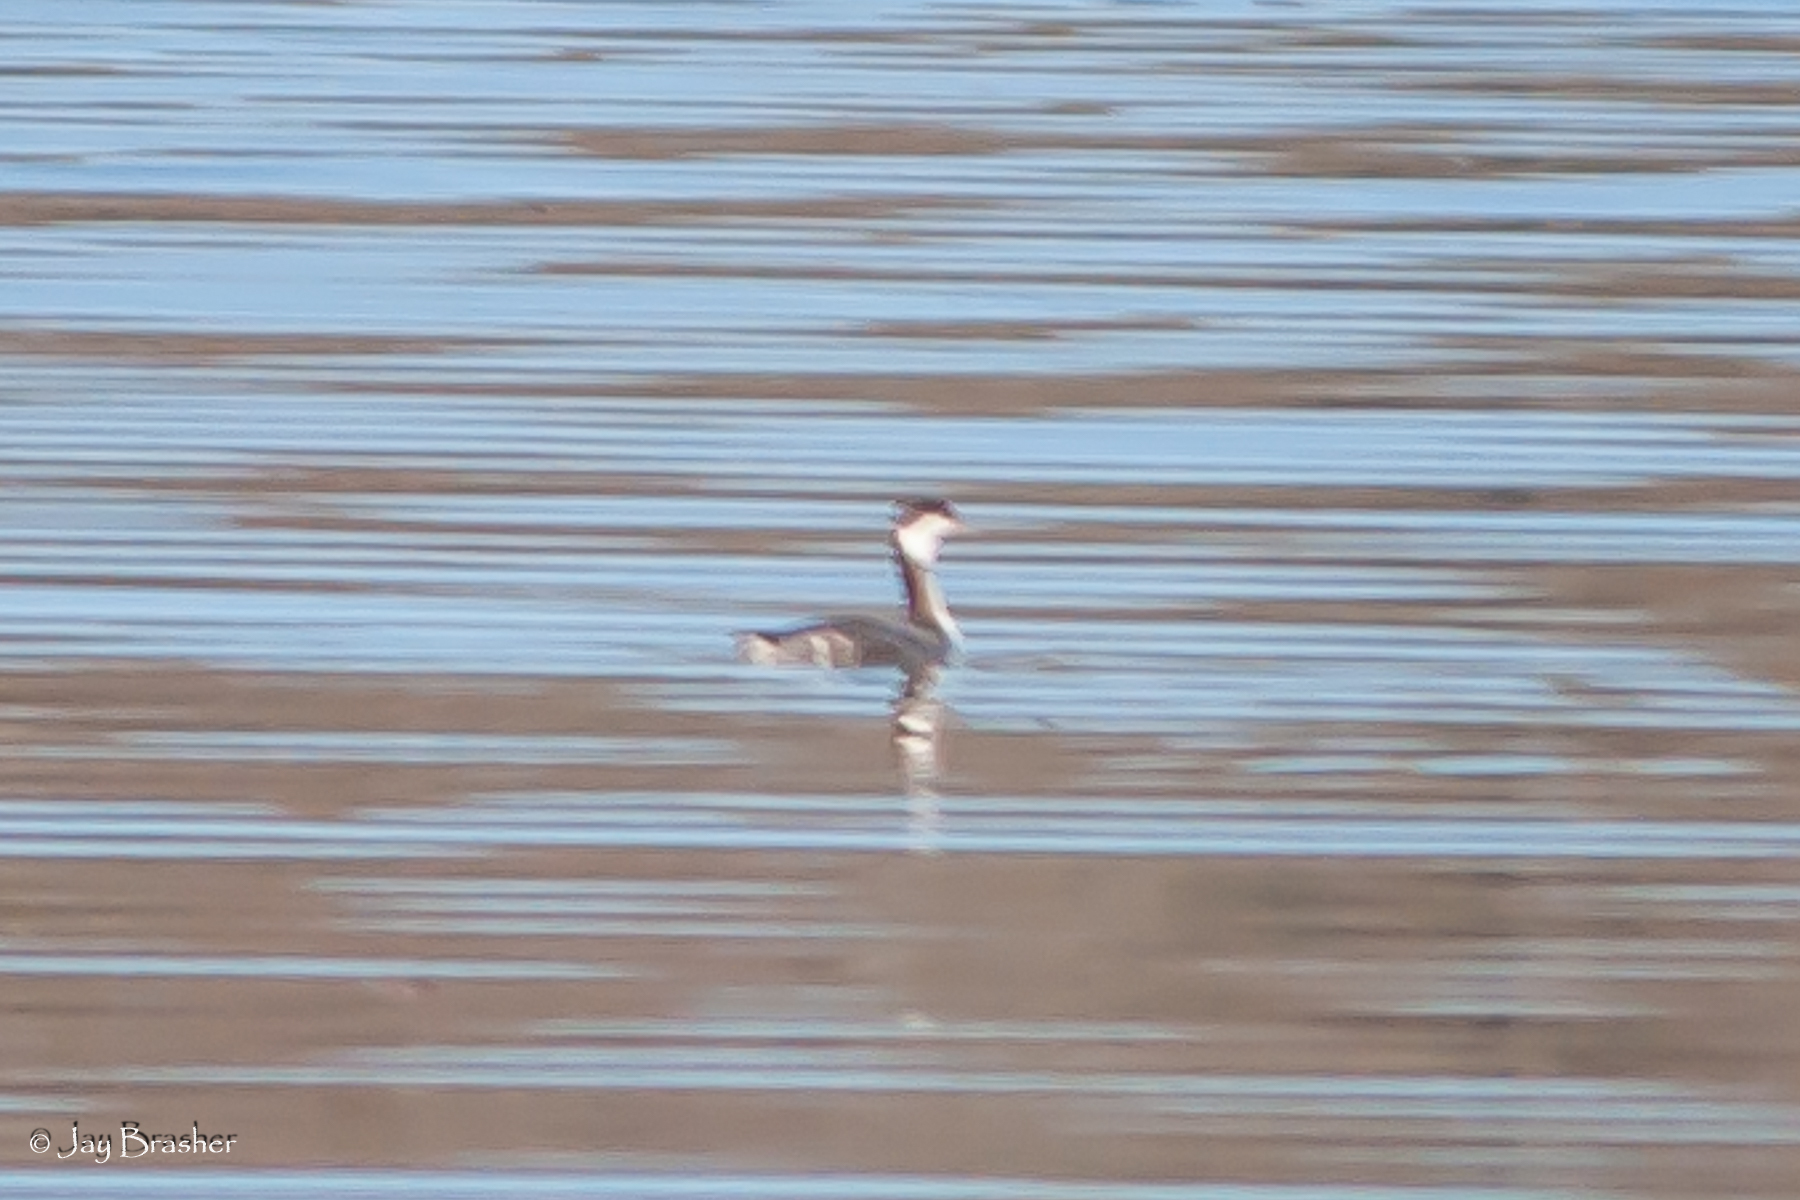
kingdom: Animalia
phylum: Chordata
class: Aves
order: Podicipediformes
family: Podicipedidae
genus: Podiceps
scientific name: Podiceps auritus
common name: Horned grebe
